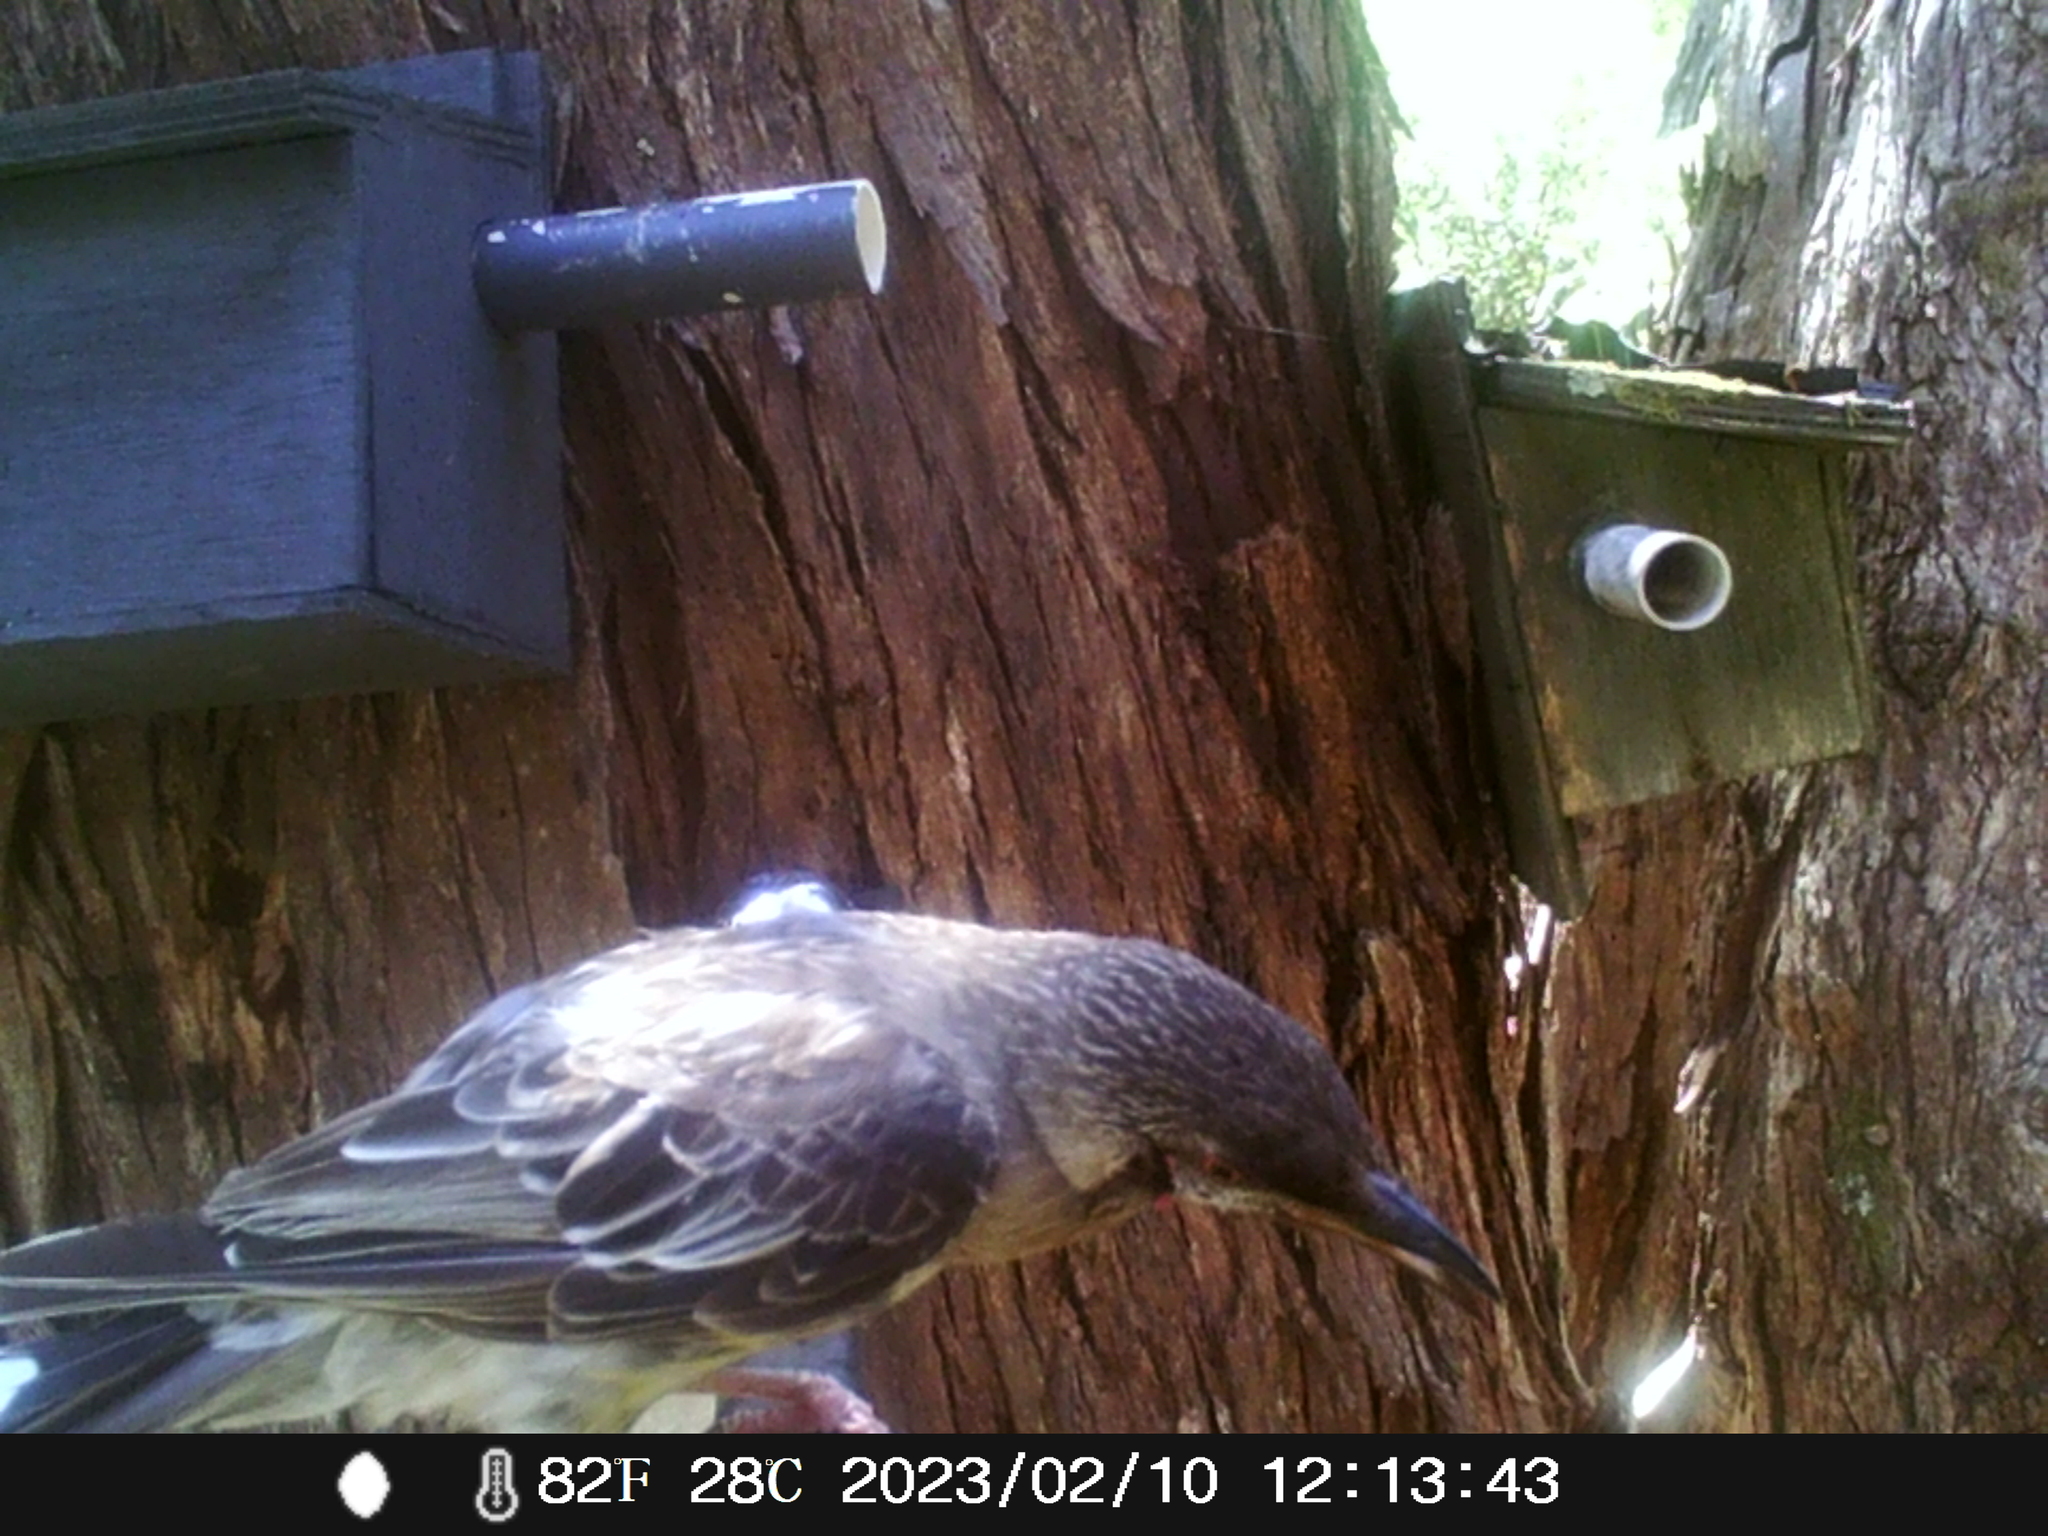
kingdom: Animalia
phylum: Chordata
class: Aves
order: Passeriformes
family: Meliphagidae
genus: Anthochaera
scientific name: Anthochaera carunculata
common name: Red wattlebird
